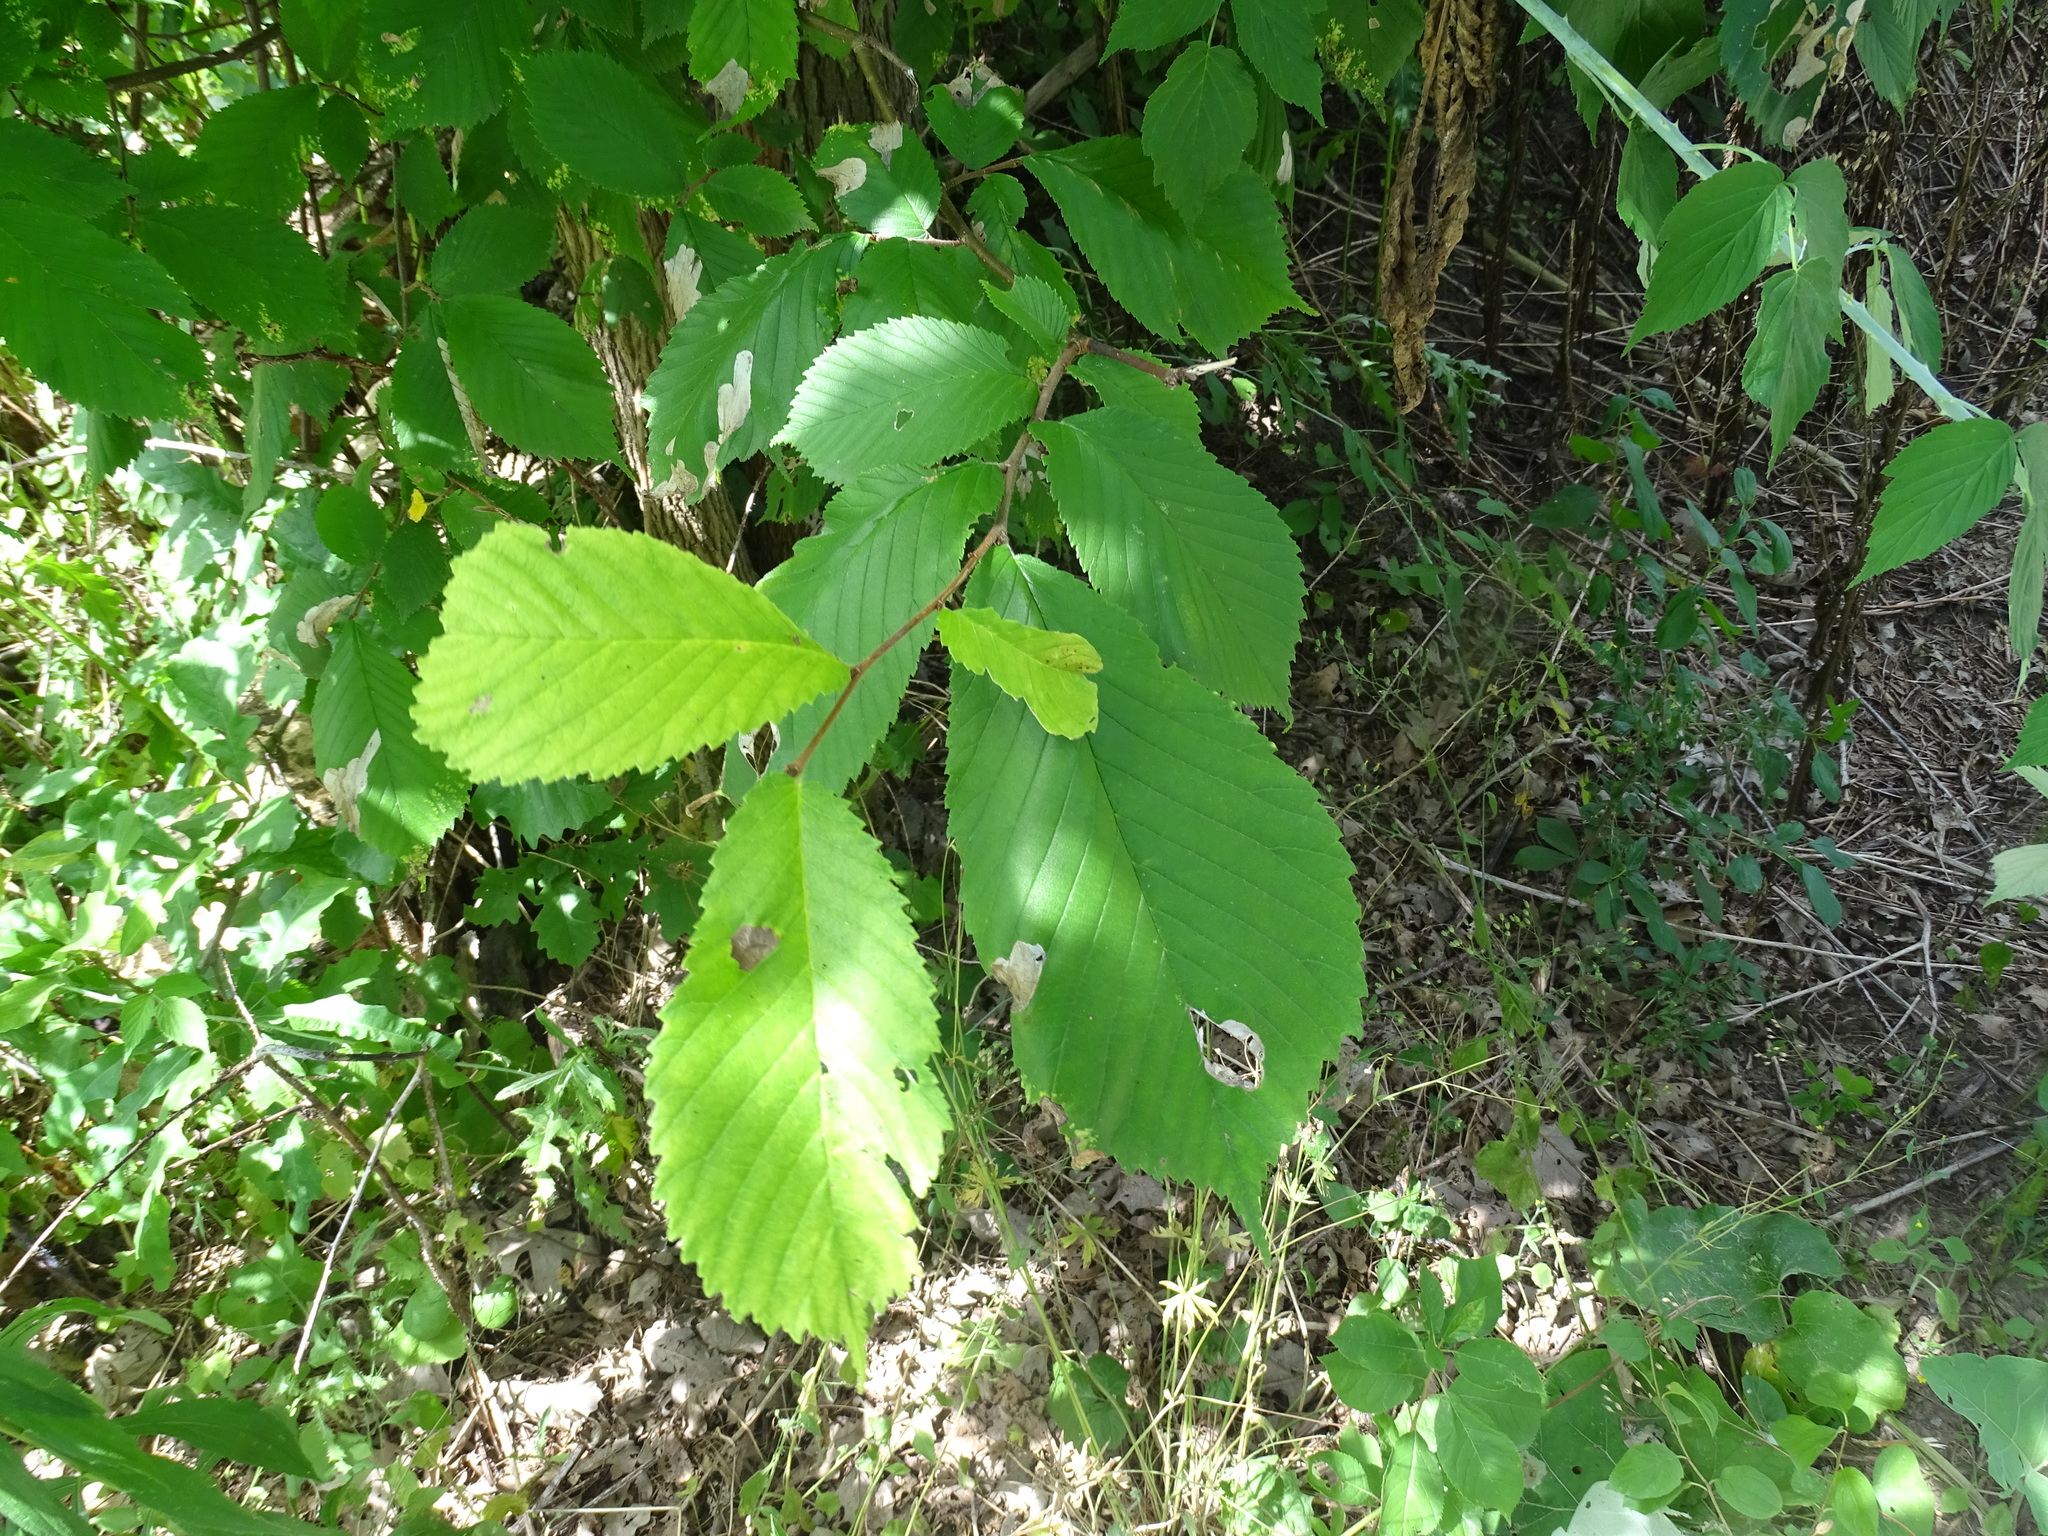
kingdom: Plantae
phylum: Tracheophyta
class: Magnoliopsida
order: Rosales
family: Ulmaceae
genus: Ulmus
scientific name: Ulmus rubra
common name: Slippery elm
